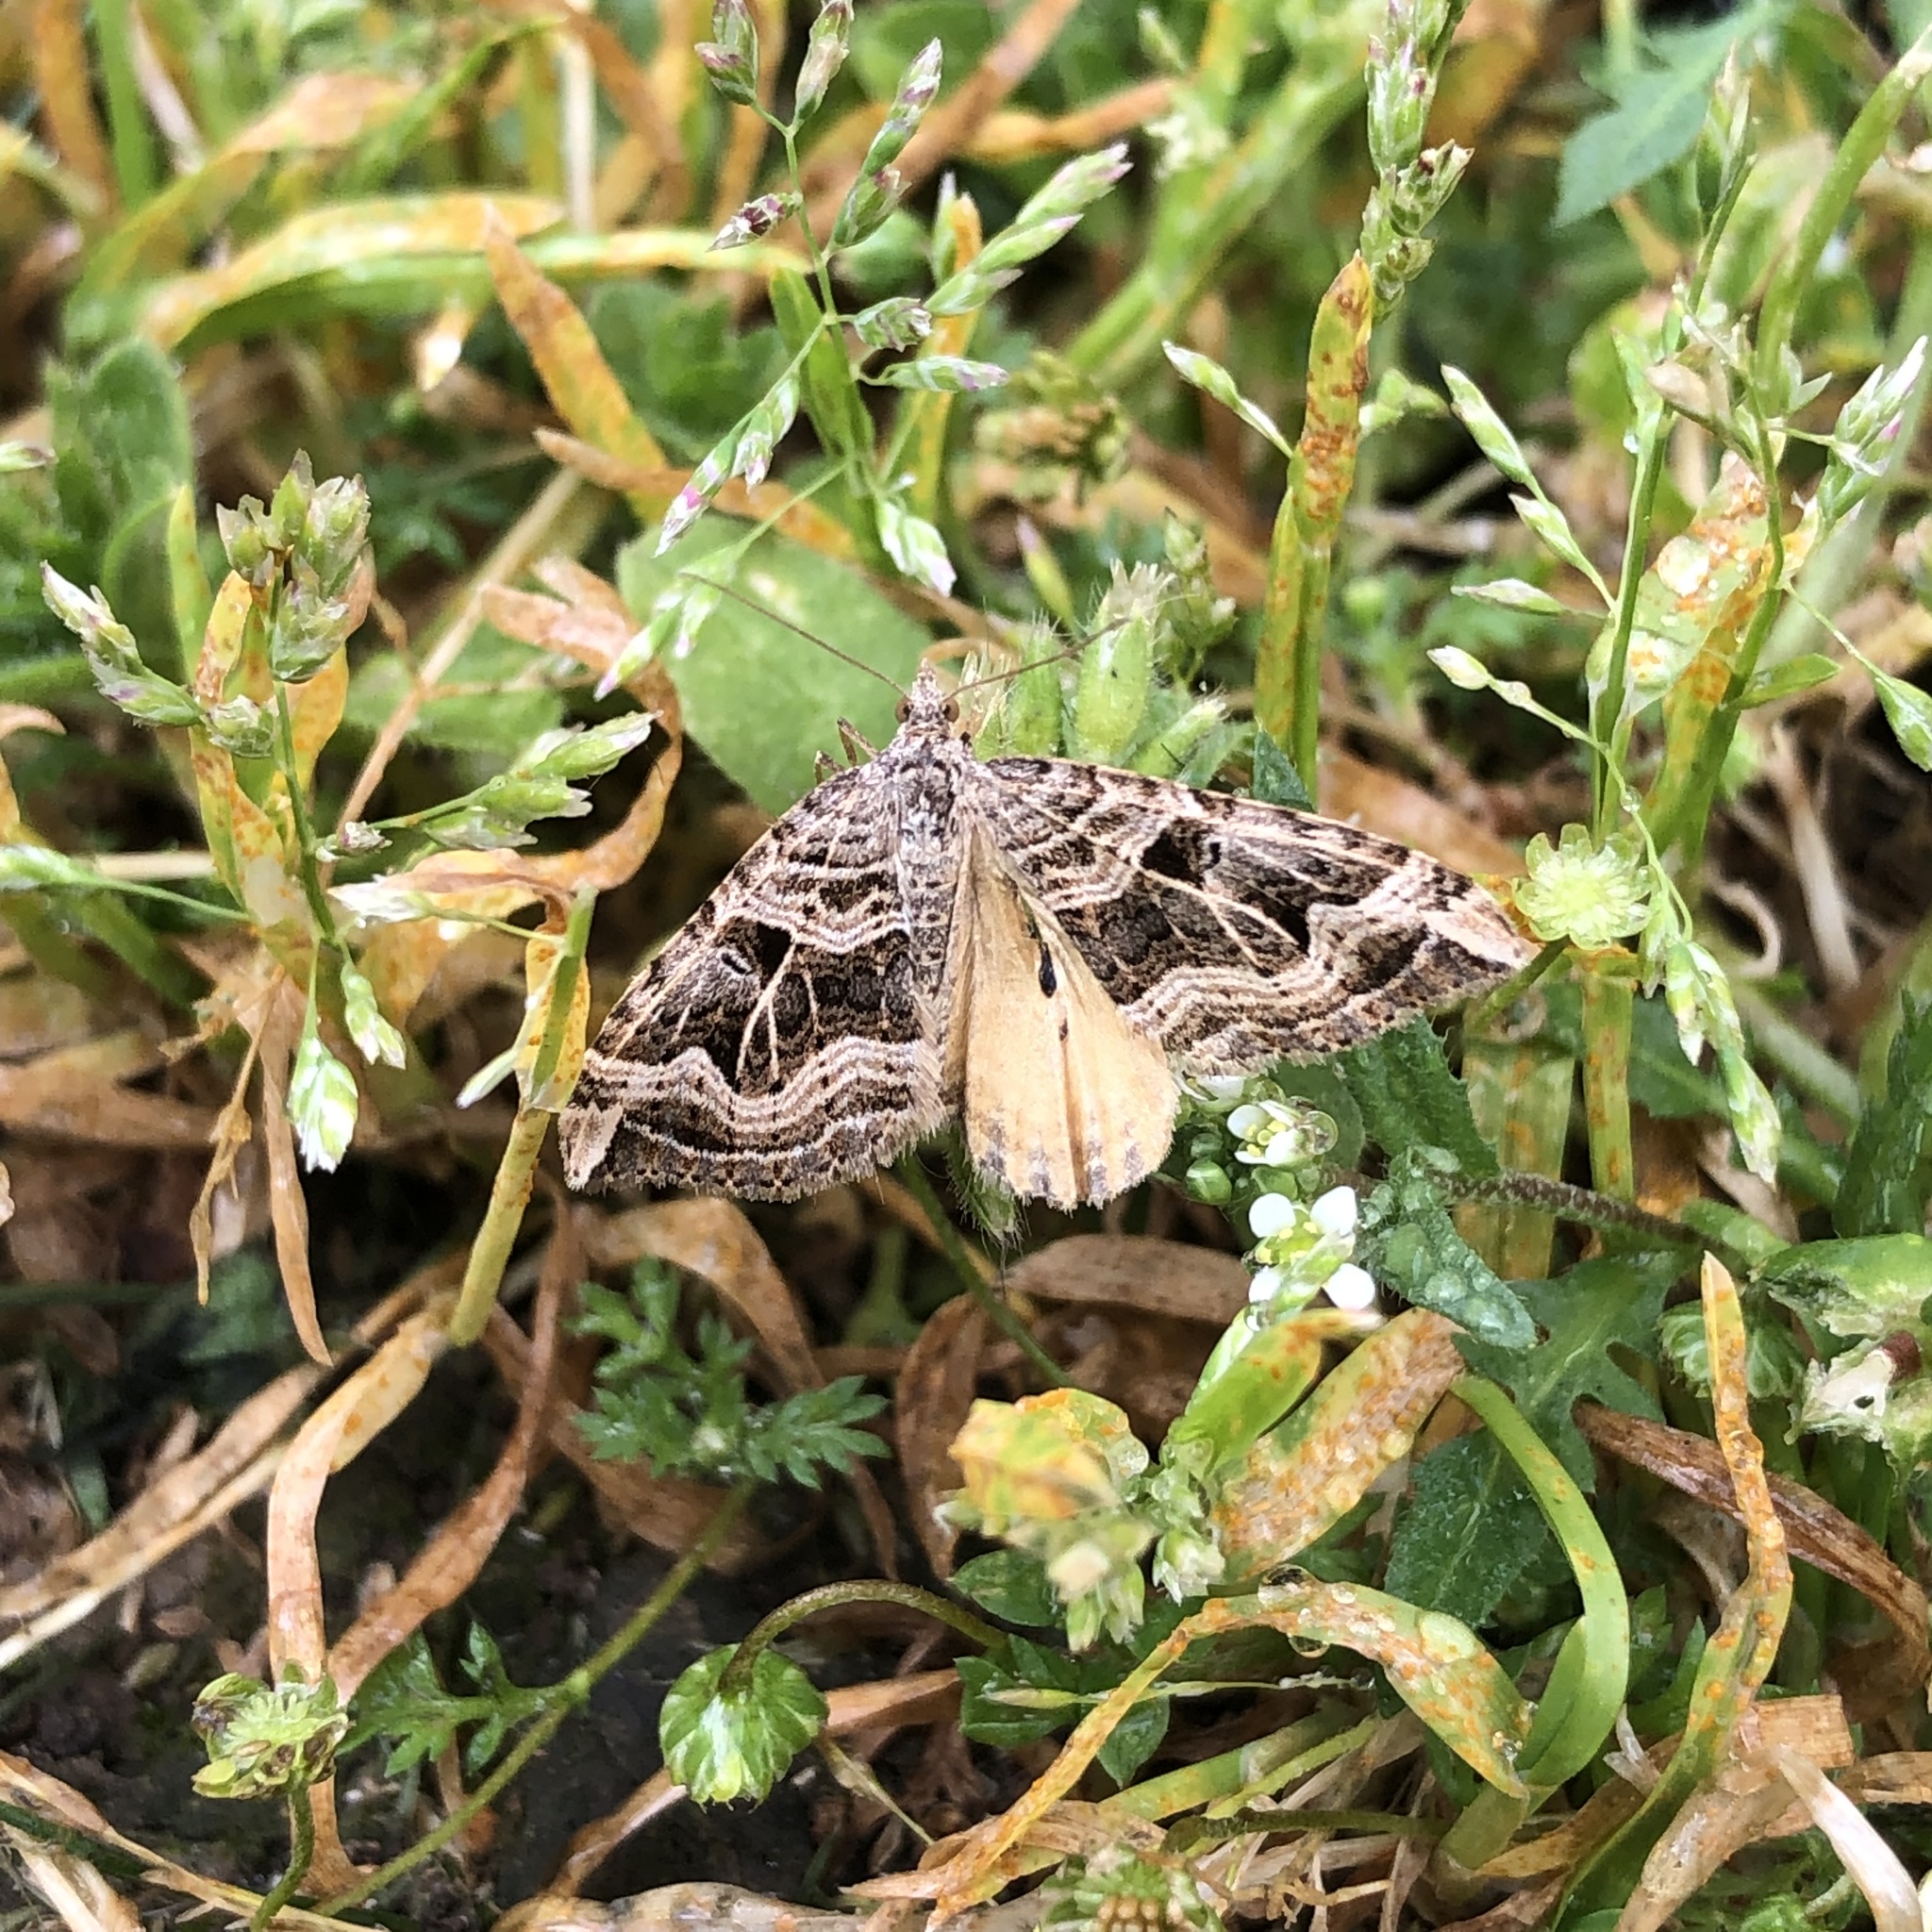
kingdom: Animalia
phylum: Arthropoda
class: Insecta
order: Lepidoptera
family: Geometridae
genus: Xanthorhoe
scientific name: Xanthorhoe semifissata
